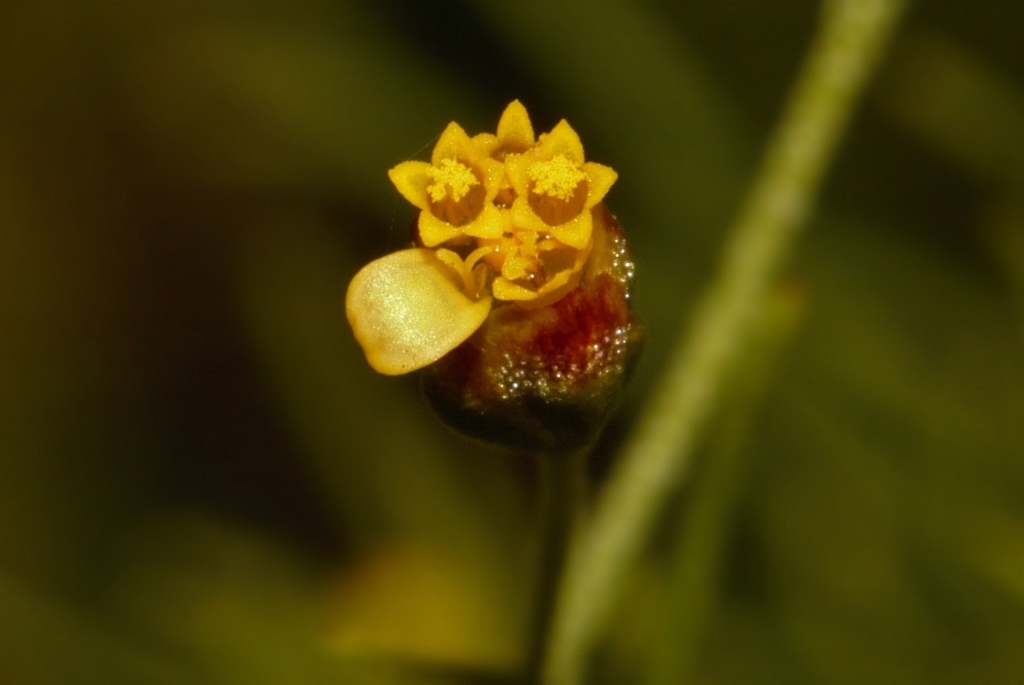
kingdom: Plantae
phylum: Tracheophyta
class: Magnoliopsida
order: Asterales
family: Asteraceae
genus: Schkuhria
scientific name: Schkuhria pinnata
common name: Dwarf marigold
